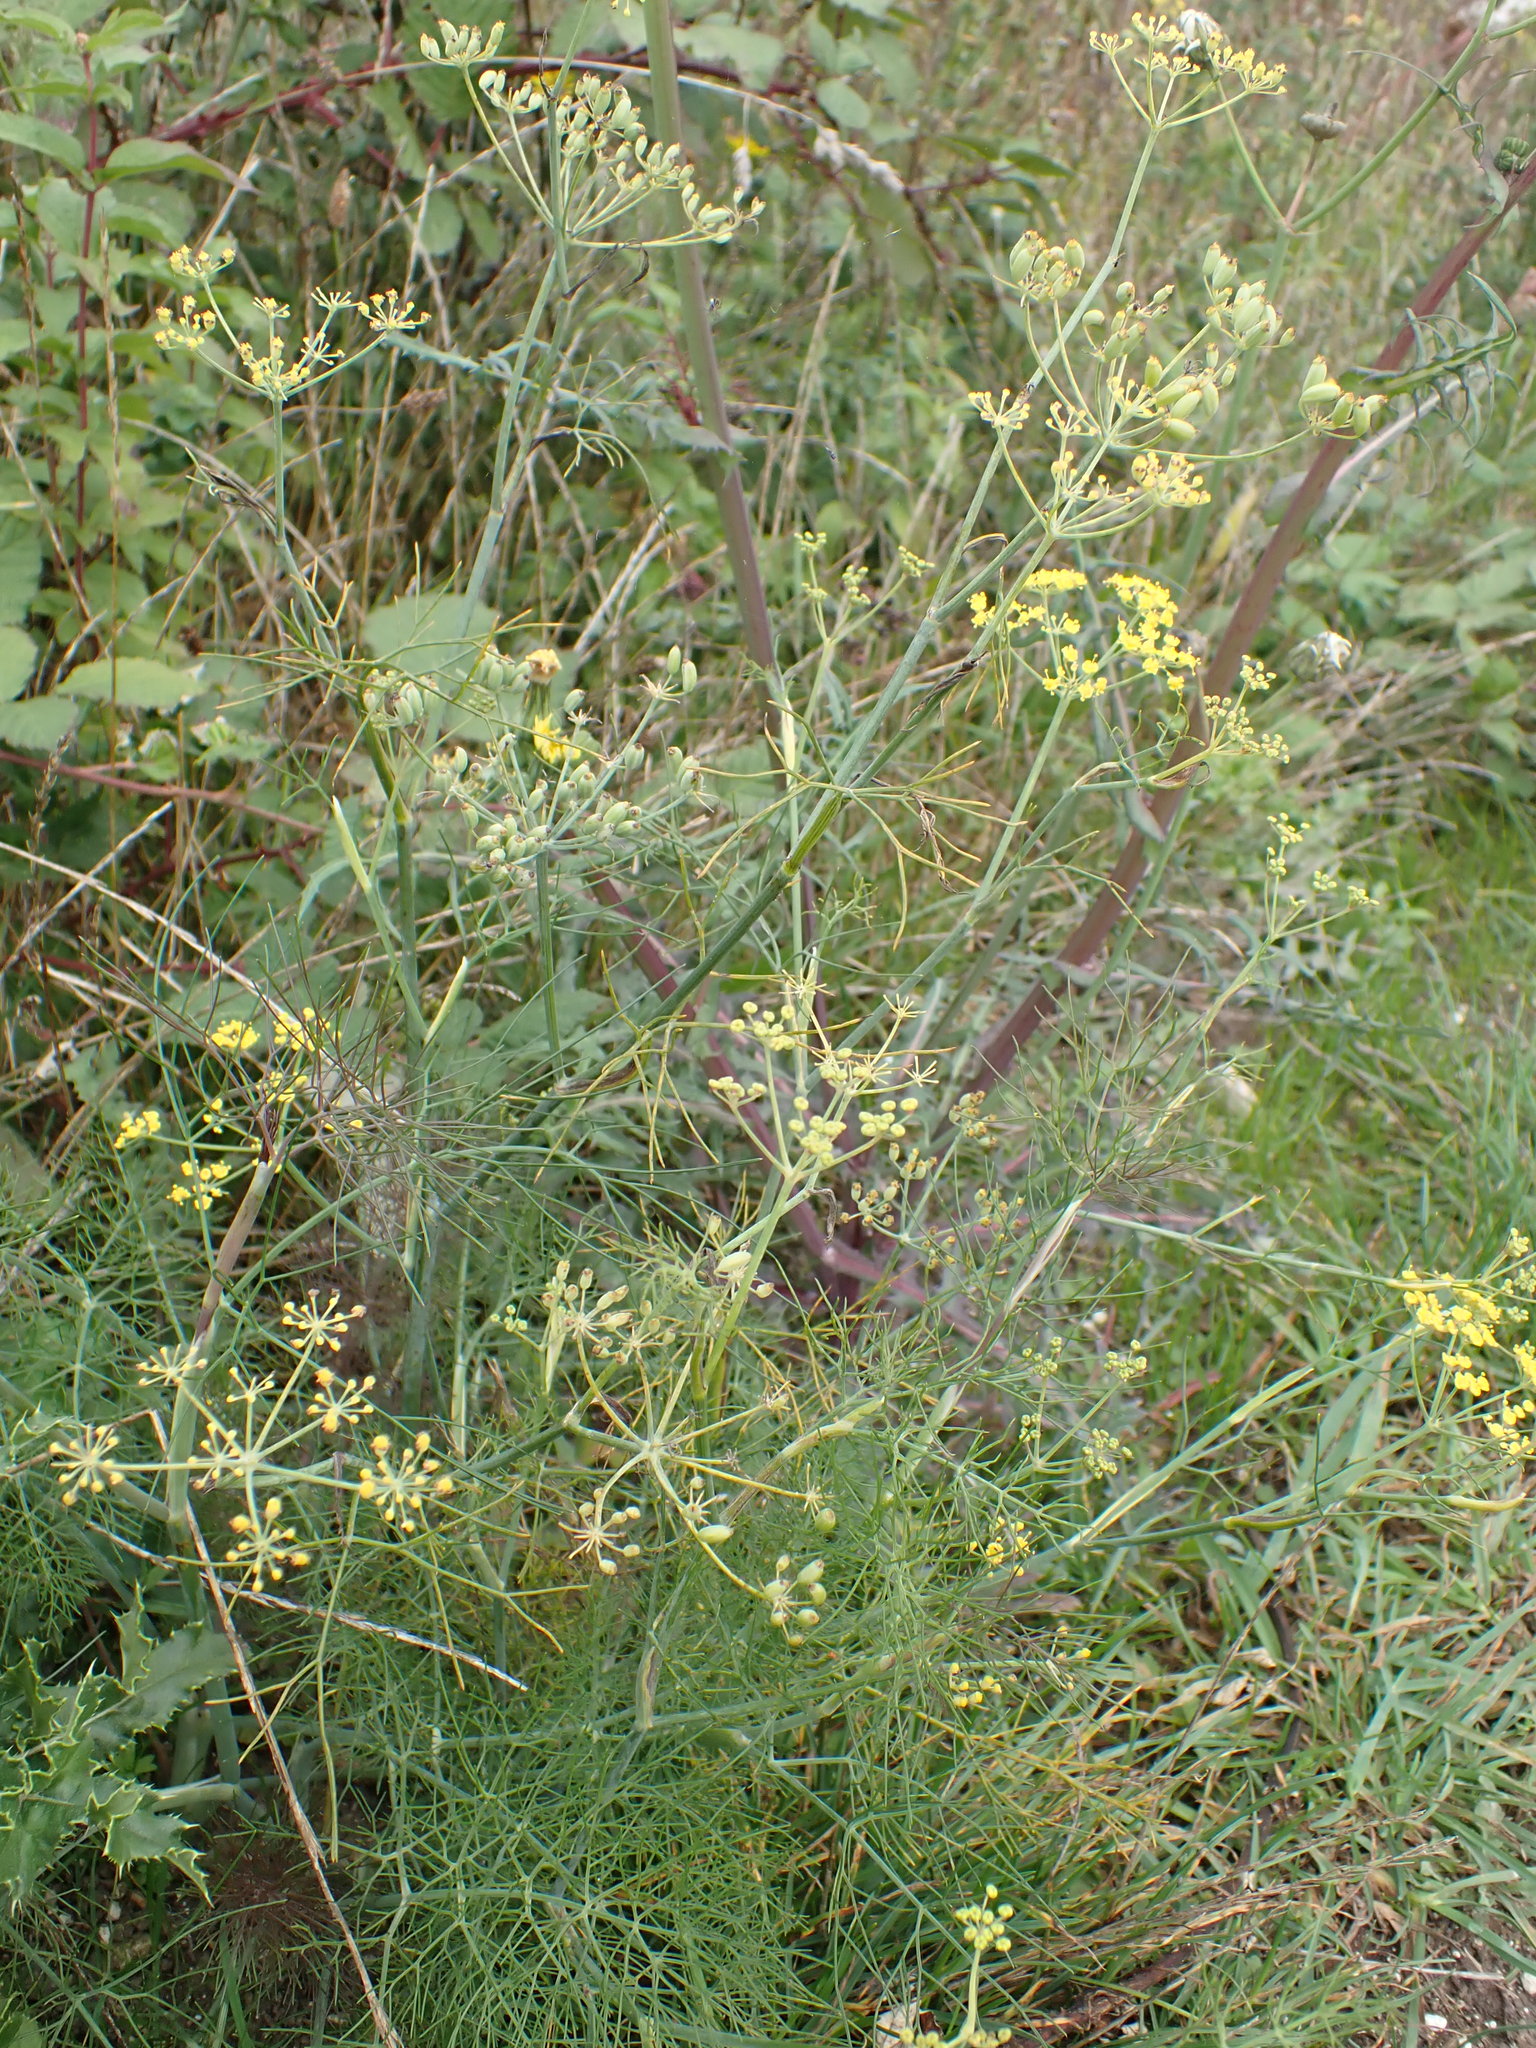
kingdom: Plantae
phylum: Tracheophyta
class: Magnoliopsida
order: Apiales
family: Apiaceae
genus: Foeniculum
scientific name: Foeniculum vulgare
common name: Fennel
